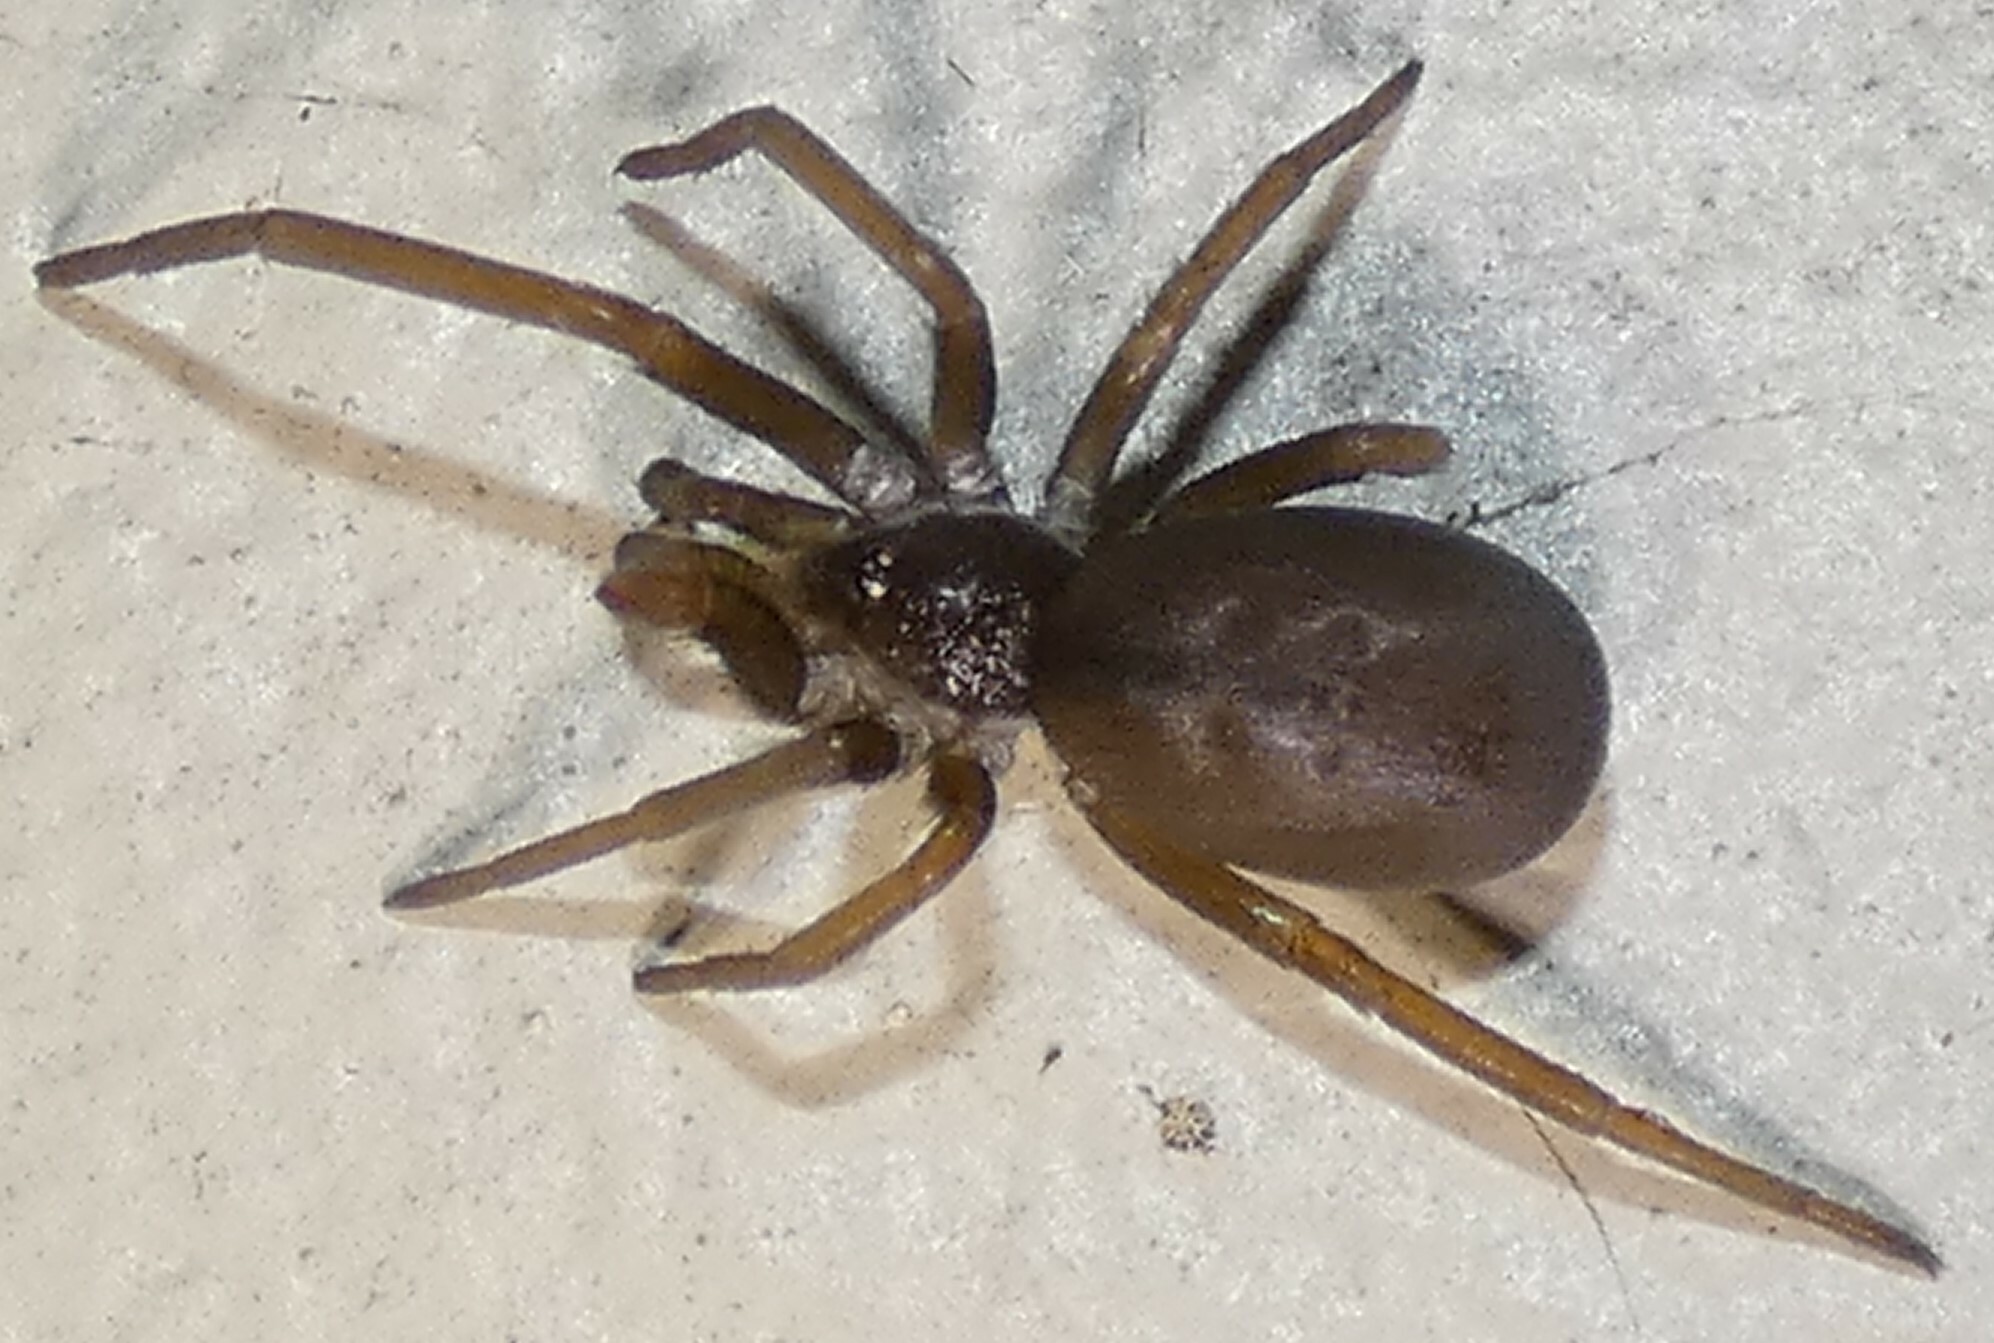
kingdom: Animalia
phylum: Arthropoda
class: Arachnida
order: Araneae
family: Filistatidae
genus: Kukulcania
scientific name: Kukulcania hibernalis
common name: Crevice weaver
